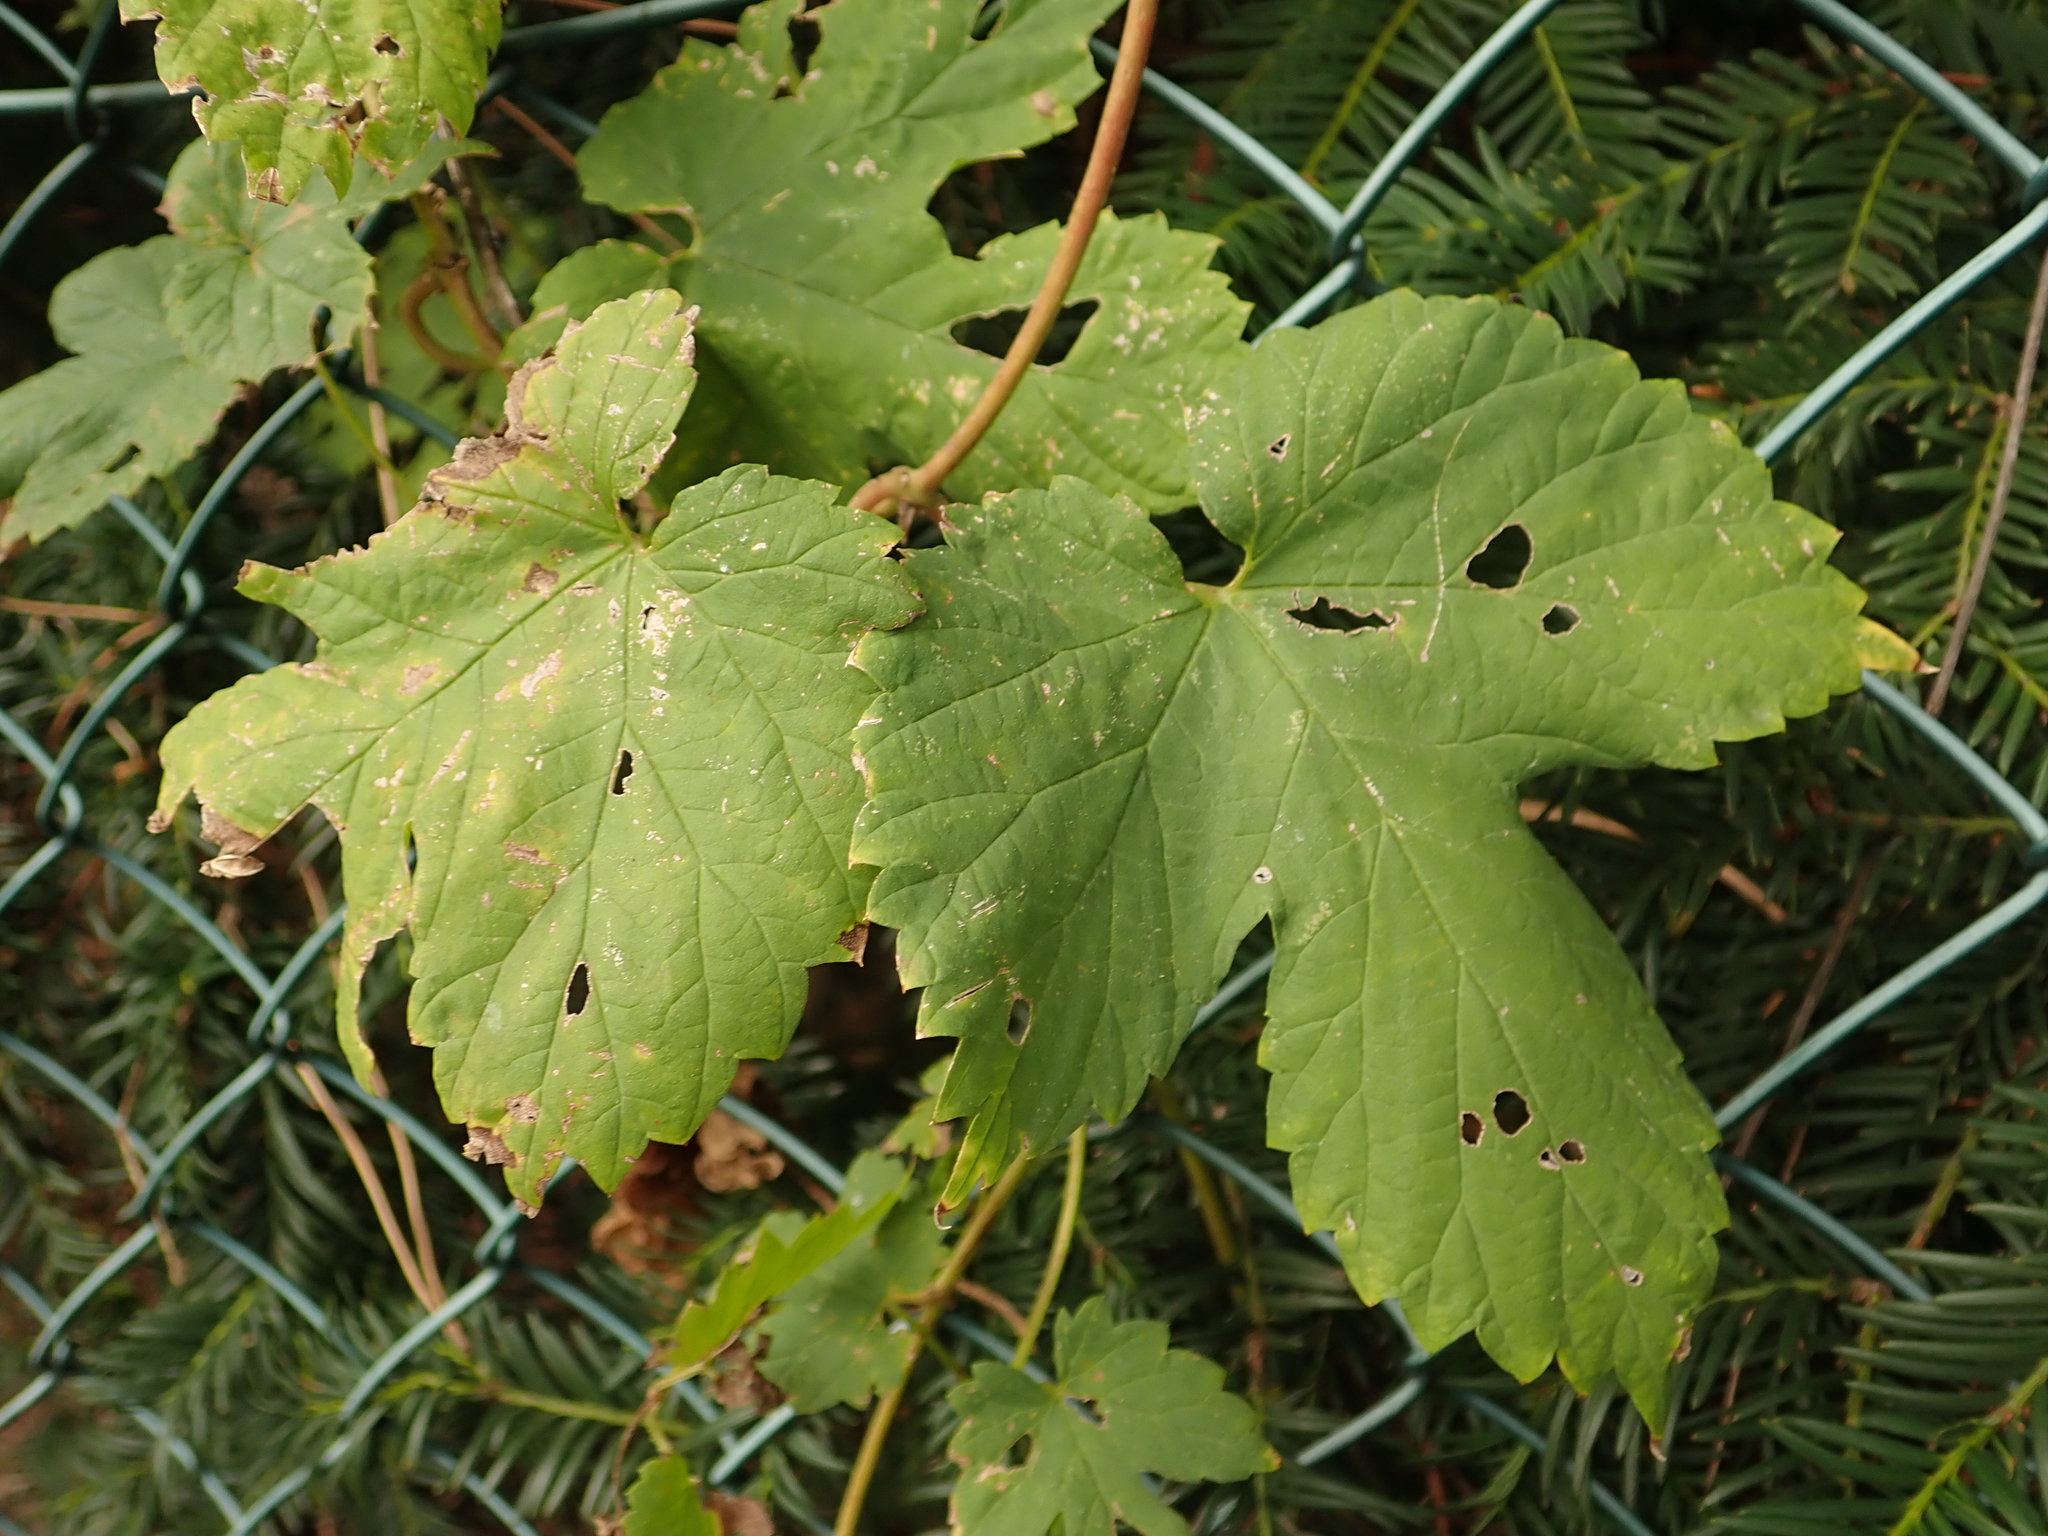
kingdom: Plantae
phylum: Tracheophyta
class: Magnoliopsida
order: Rosales
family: Cannabaceae
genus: Humulus
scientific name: Humulus lupulus
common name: Hop
